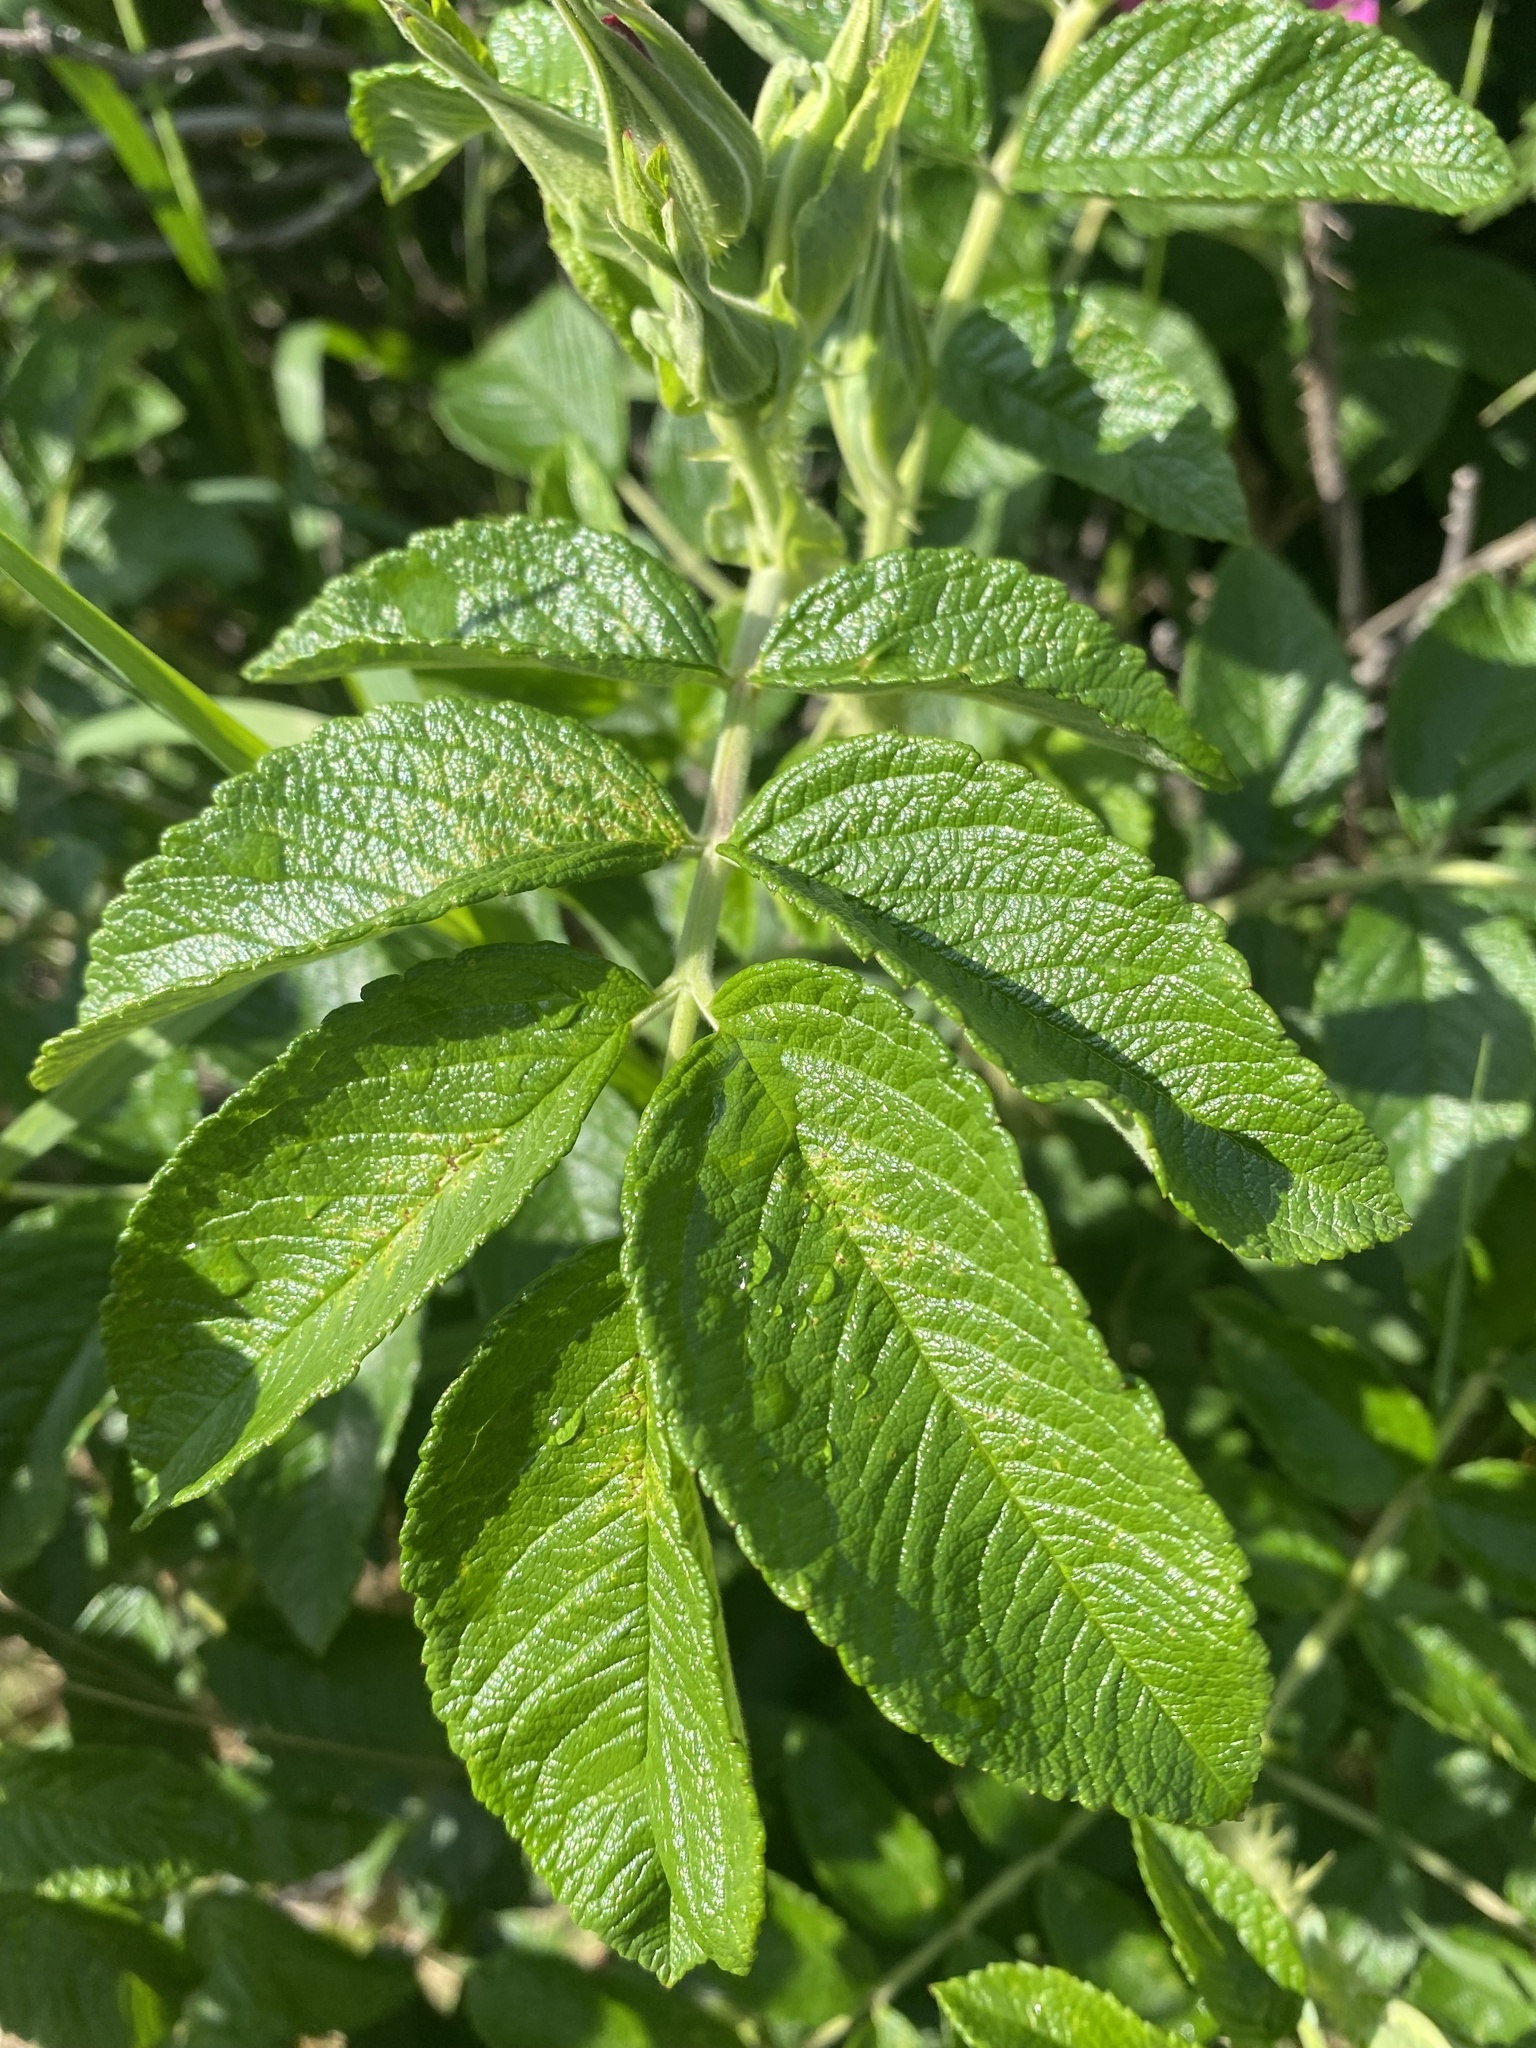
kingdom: Plantae
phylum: Tracheophyta
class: Magnoliopsida
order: Rosales
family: Rosaceae
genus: Rosa
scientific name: Rosa rugosa
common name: Japanese rose
